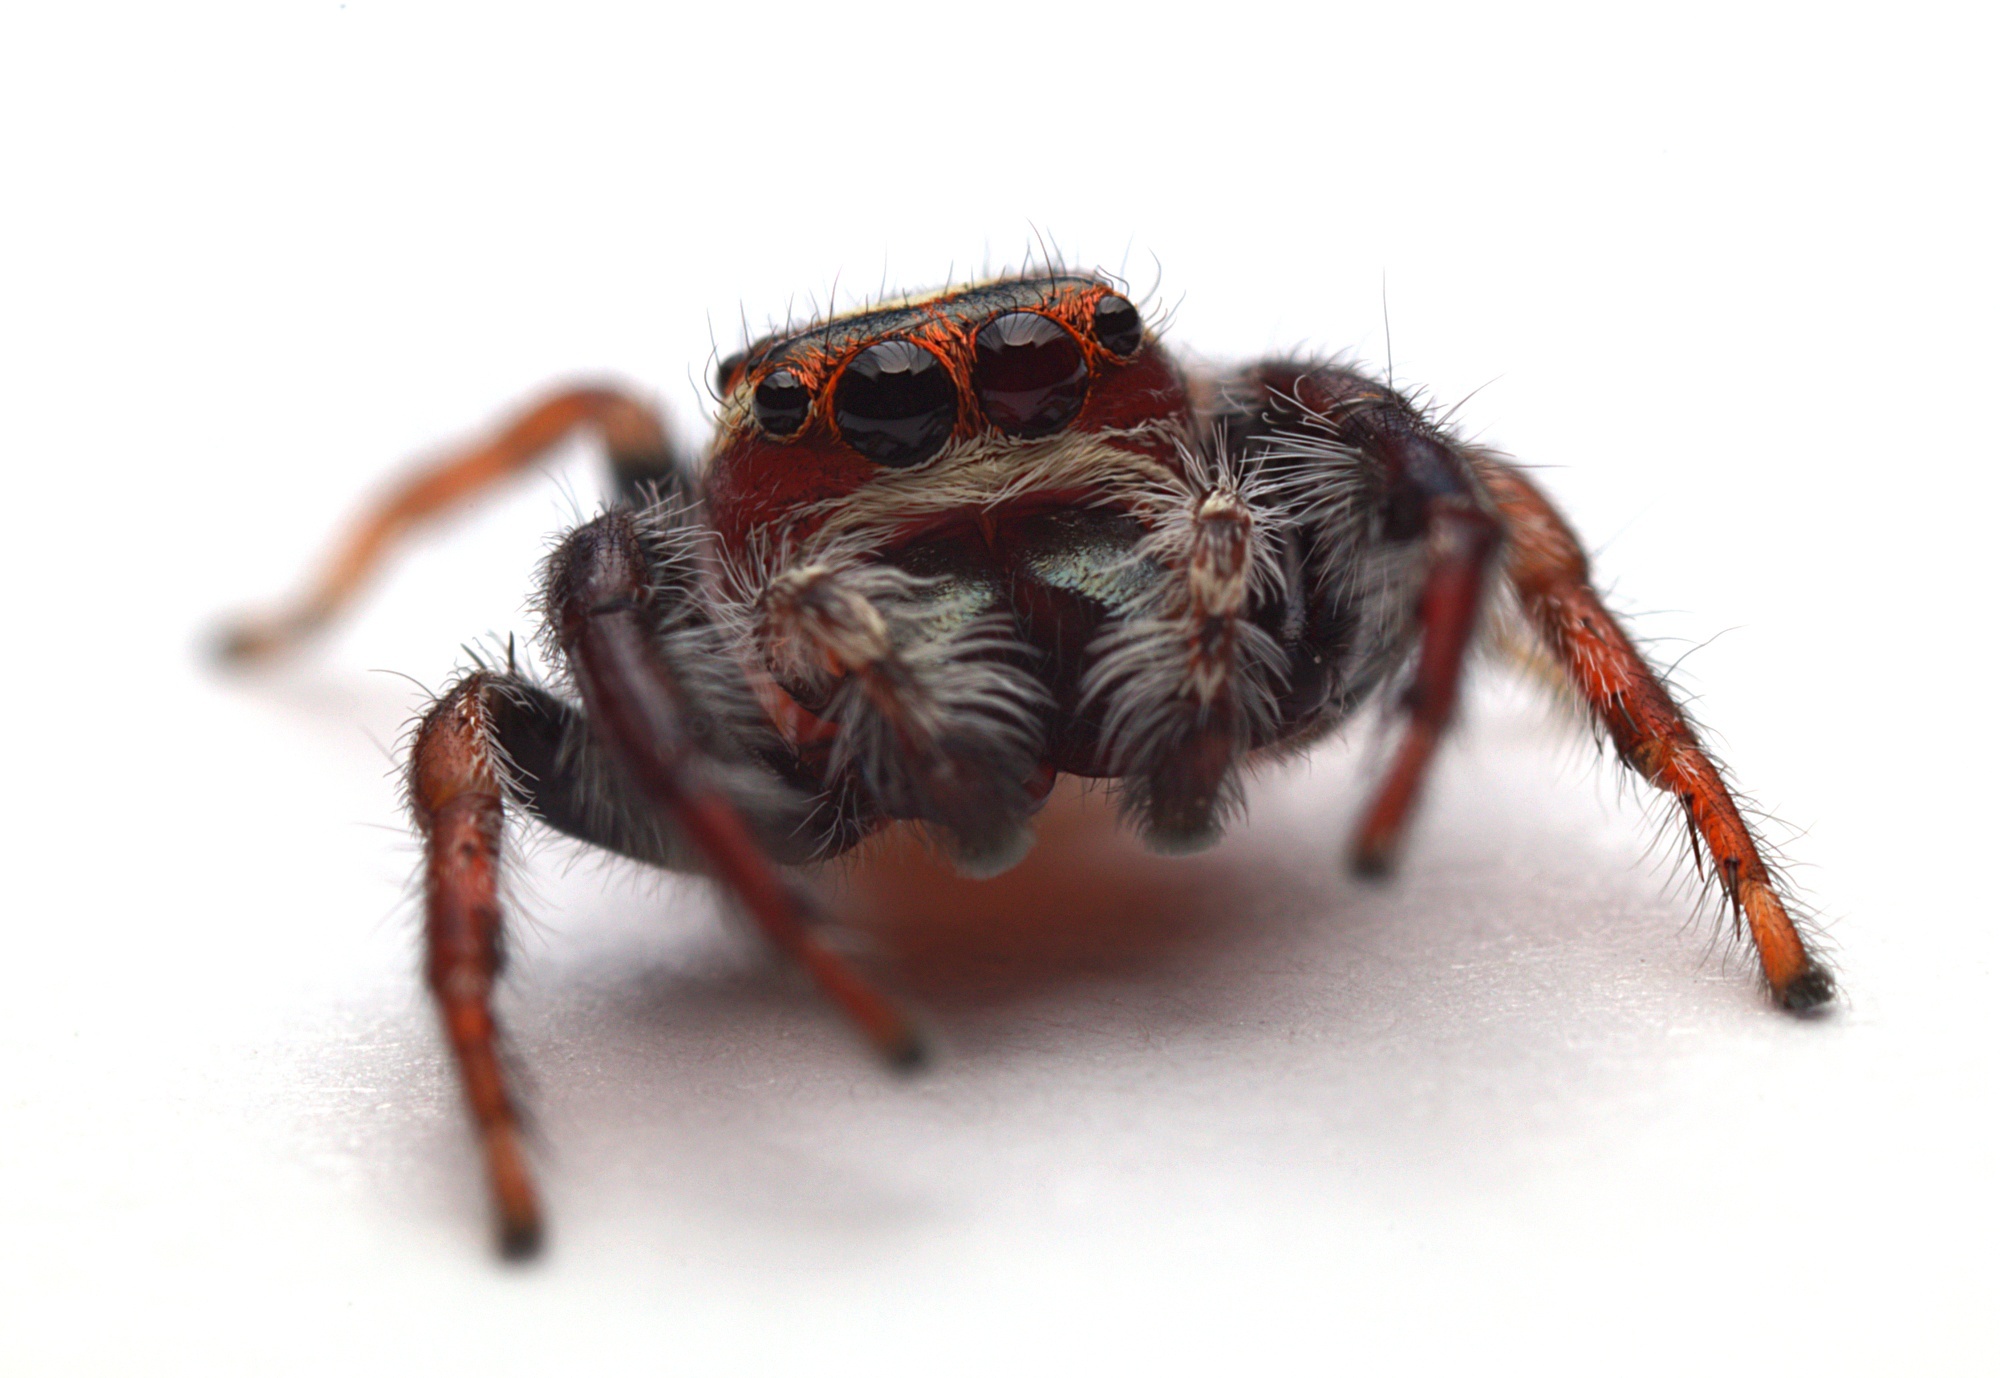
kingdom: Animalia
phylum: Arthropoda
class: Arachnida
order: Araneae
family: Salticidae
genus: Opisthoncus
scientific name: Opisthoncus polyphemus
